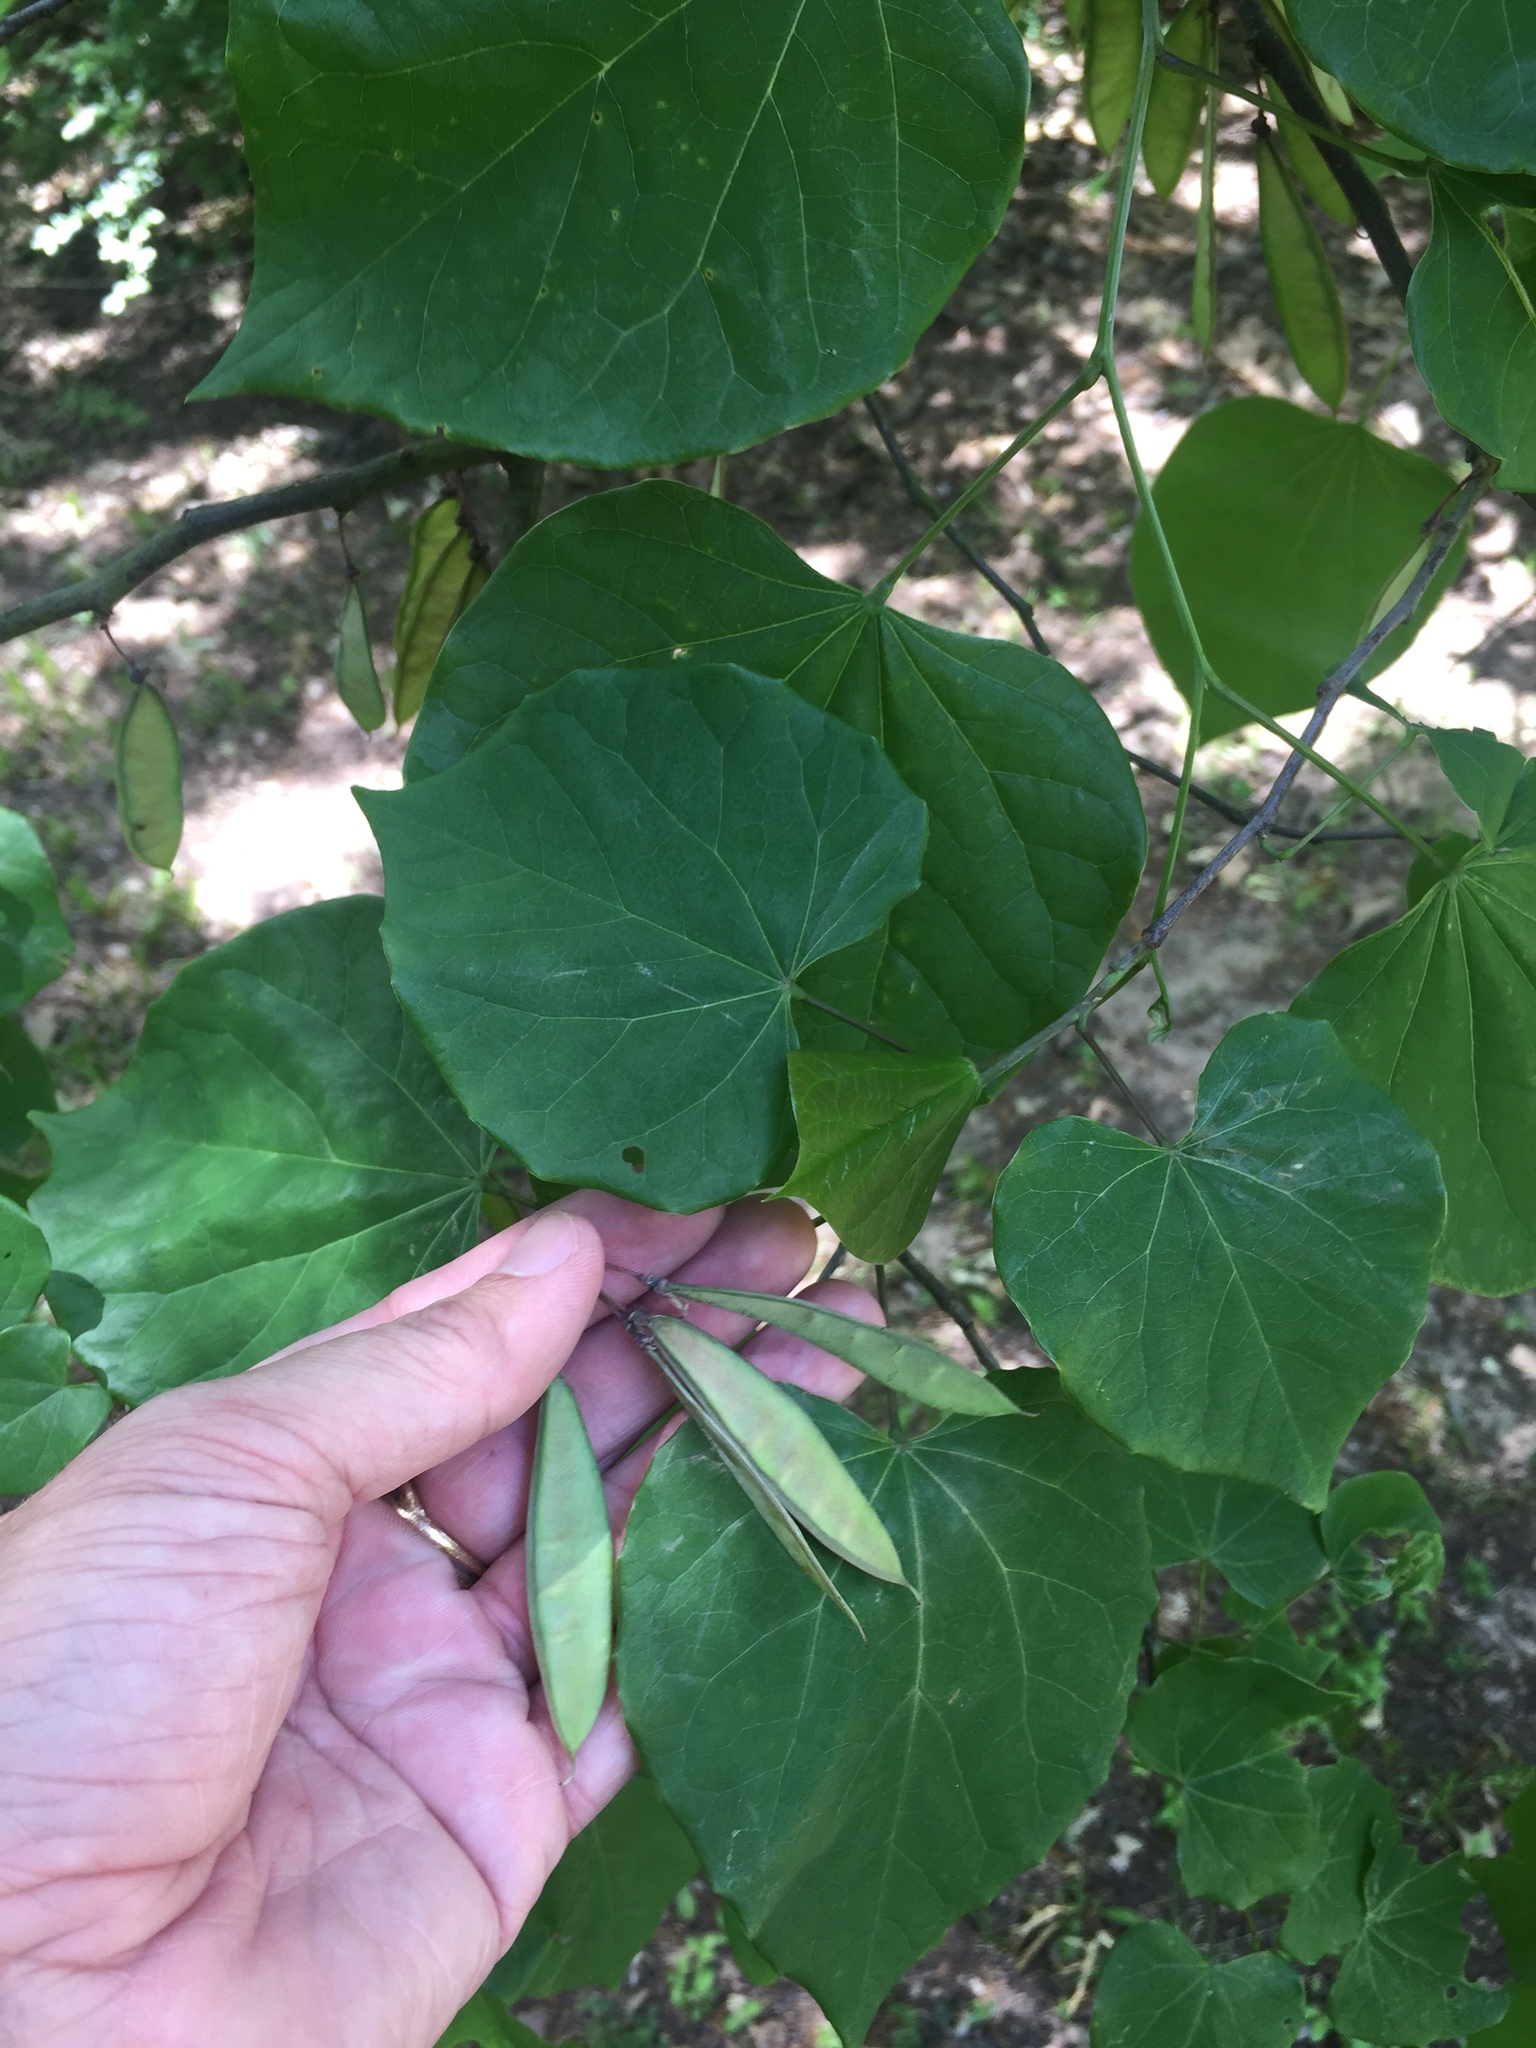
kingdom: Plantae
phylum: Tracheophyta
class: Magnoliopsida
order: Fabales
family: Fabaceae
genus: Cercis
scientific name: Cercis canadensis
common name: Eastern redbud
